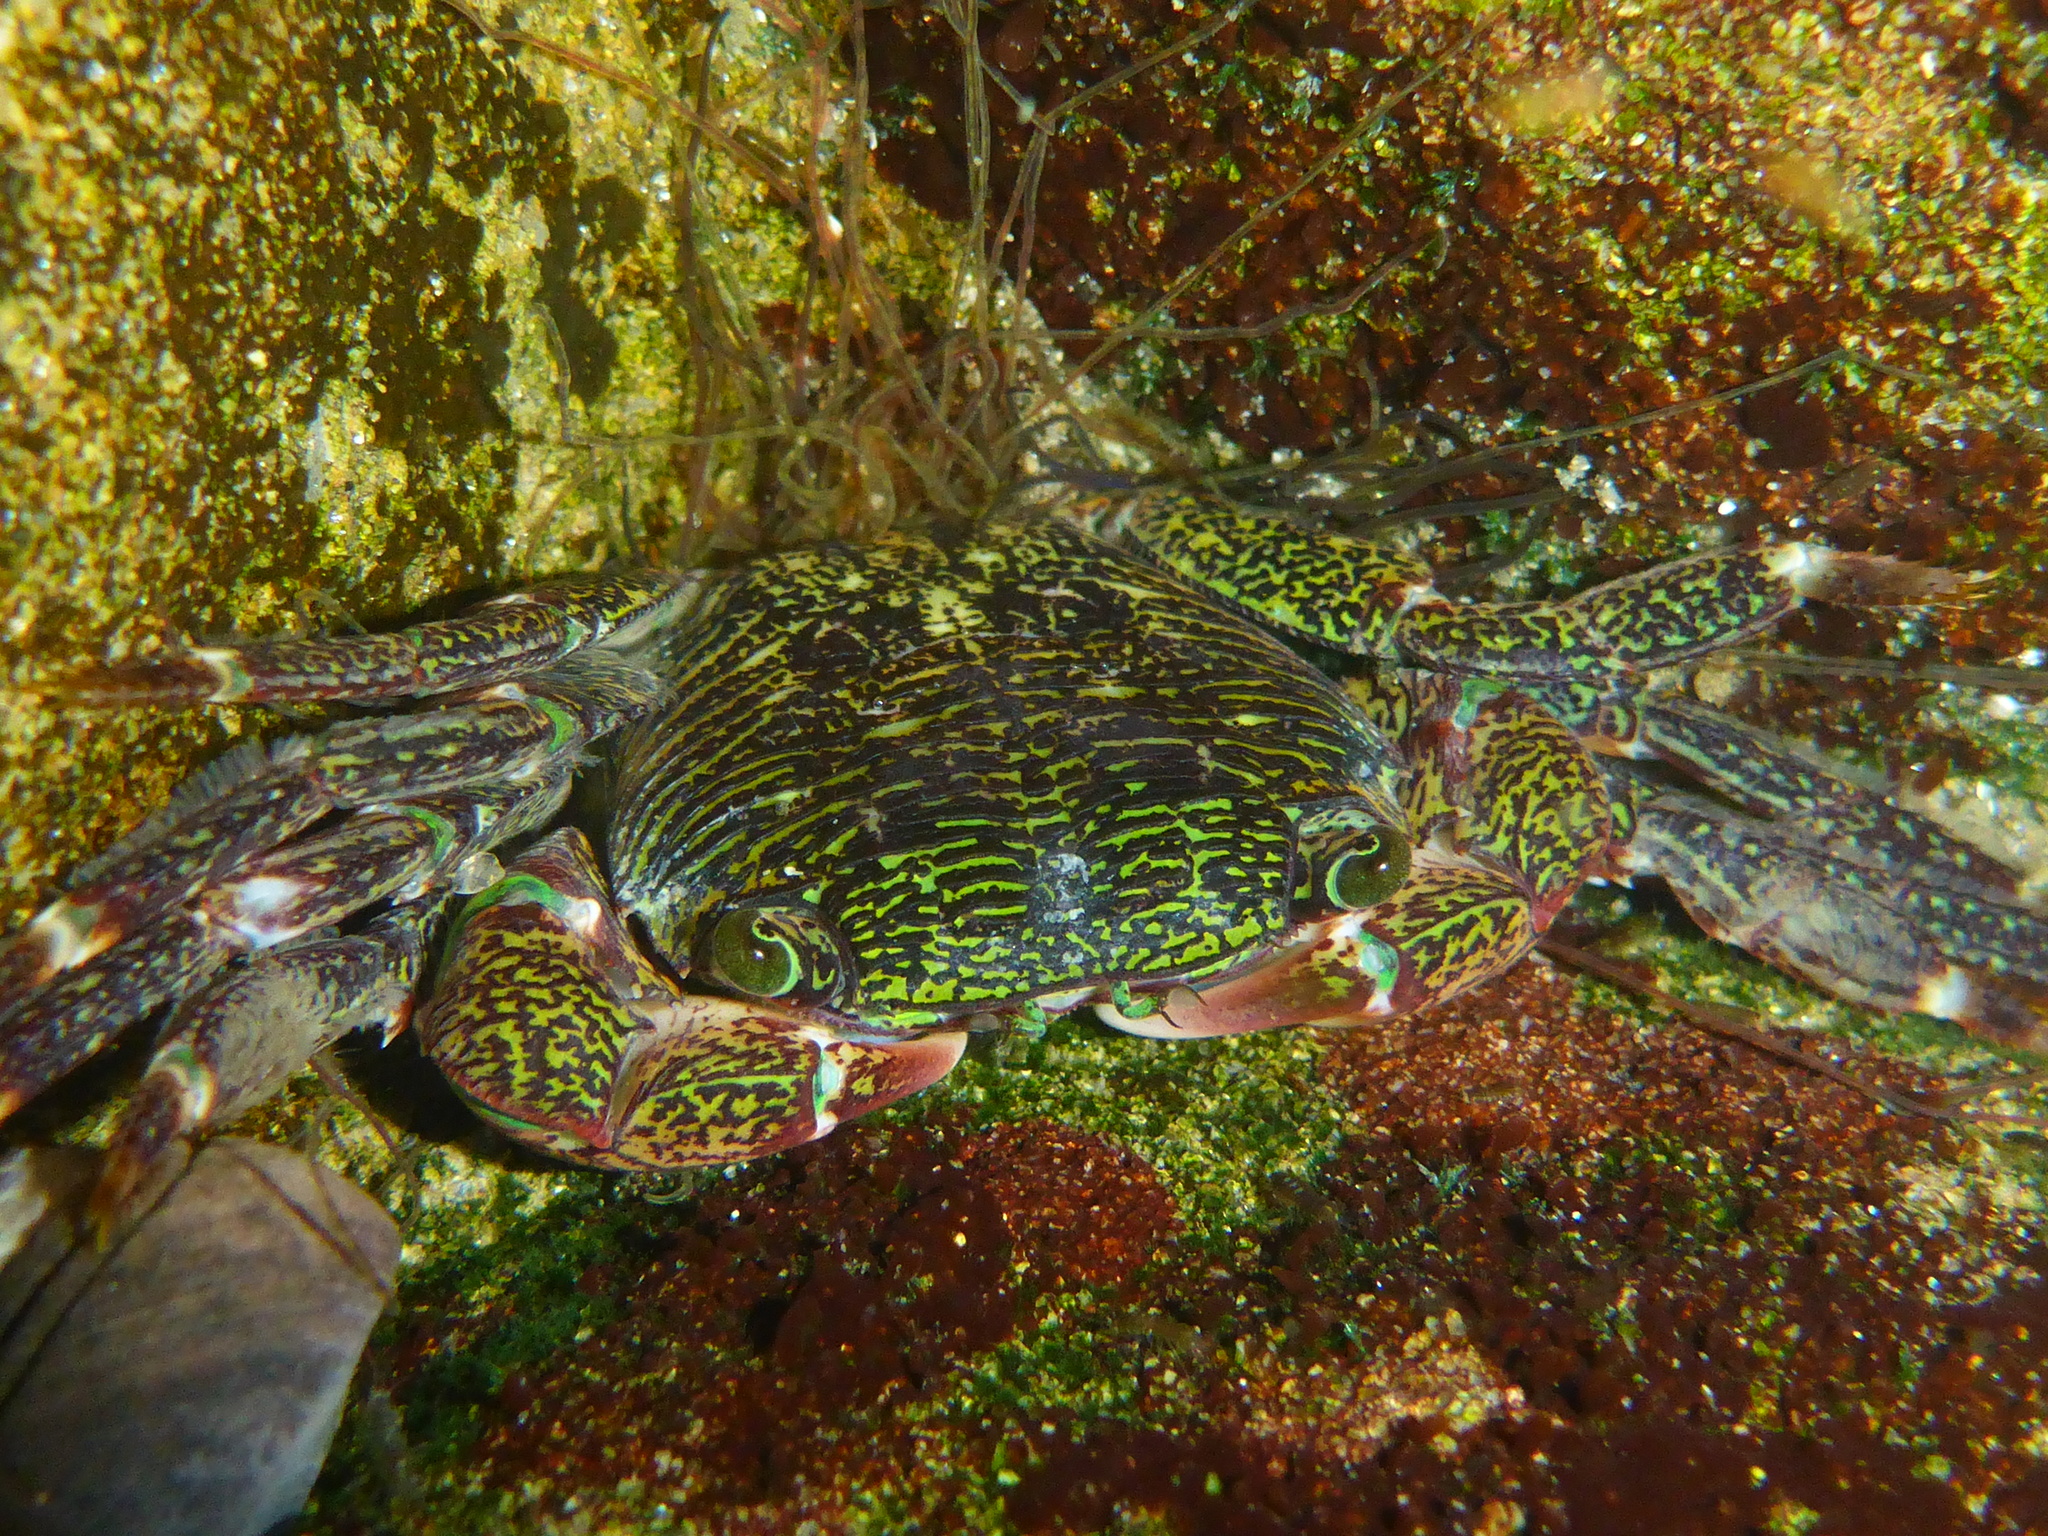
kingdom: Animalia
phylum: Arthropoda
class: Malacostraca
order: Decapoda
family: Grapsidae
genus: Pachygrapsus
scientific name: Pachygrapsus crassipes
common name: Striped shore crab
